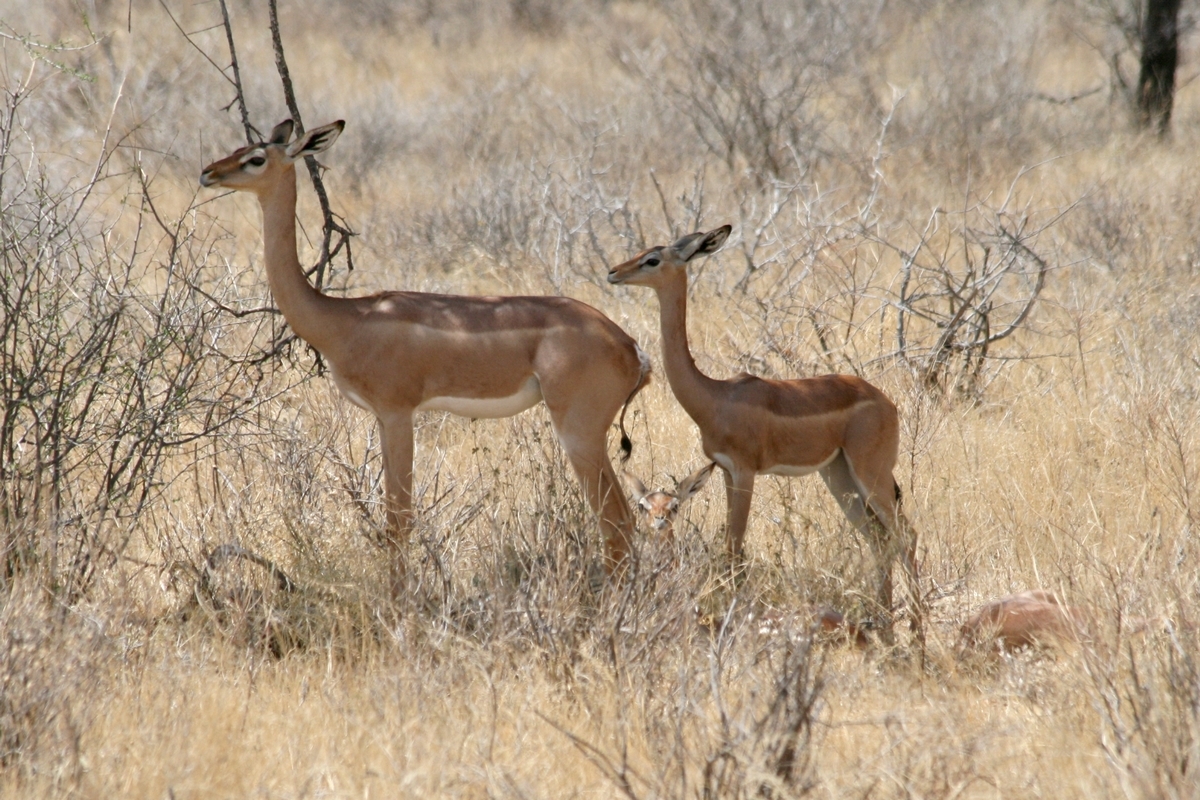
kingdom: Animalia
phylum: Chordata
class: Mammalia
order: Artiodactyla
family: Bovidae
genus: Litocranius
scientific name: Litocranius walleri
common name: Gerenuk
